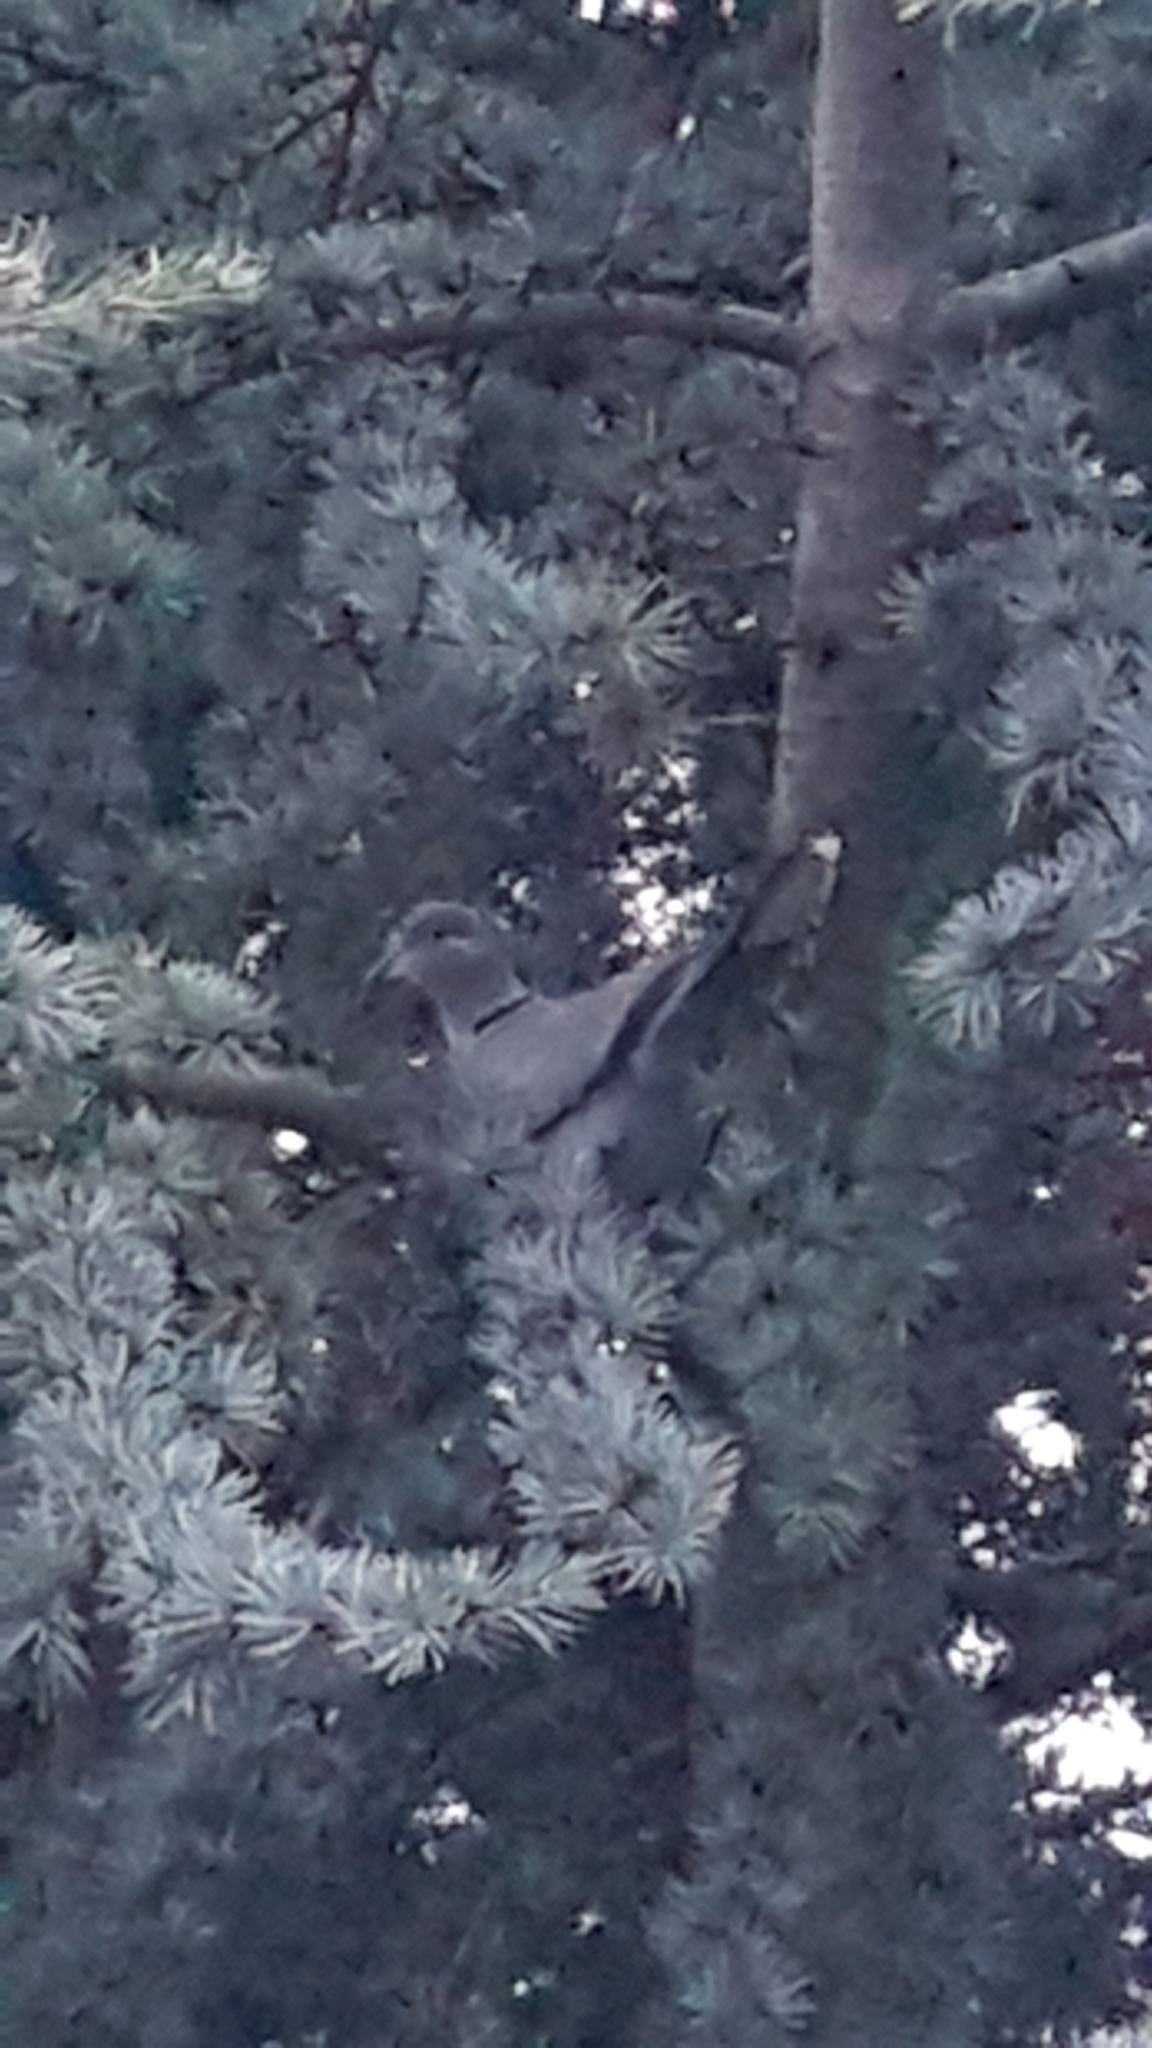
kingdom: Animalia
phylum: Chordata
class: Aves
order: Columbiformes
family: Columbidae
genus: Streptopelia
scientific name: Streptopelia decaocto
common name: Eurasian collared dove
